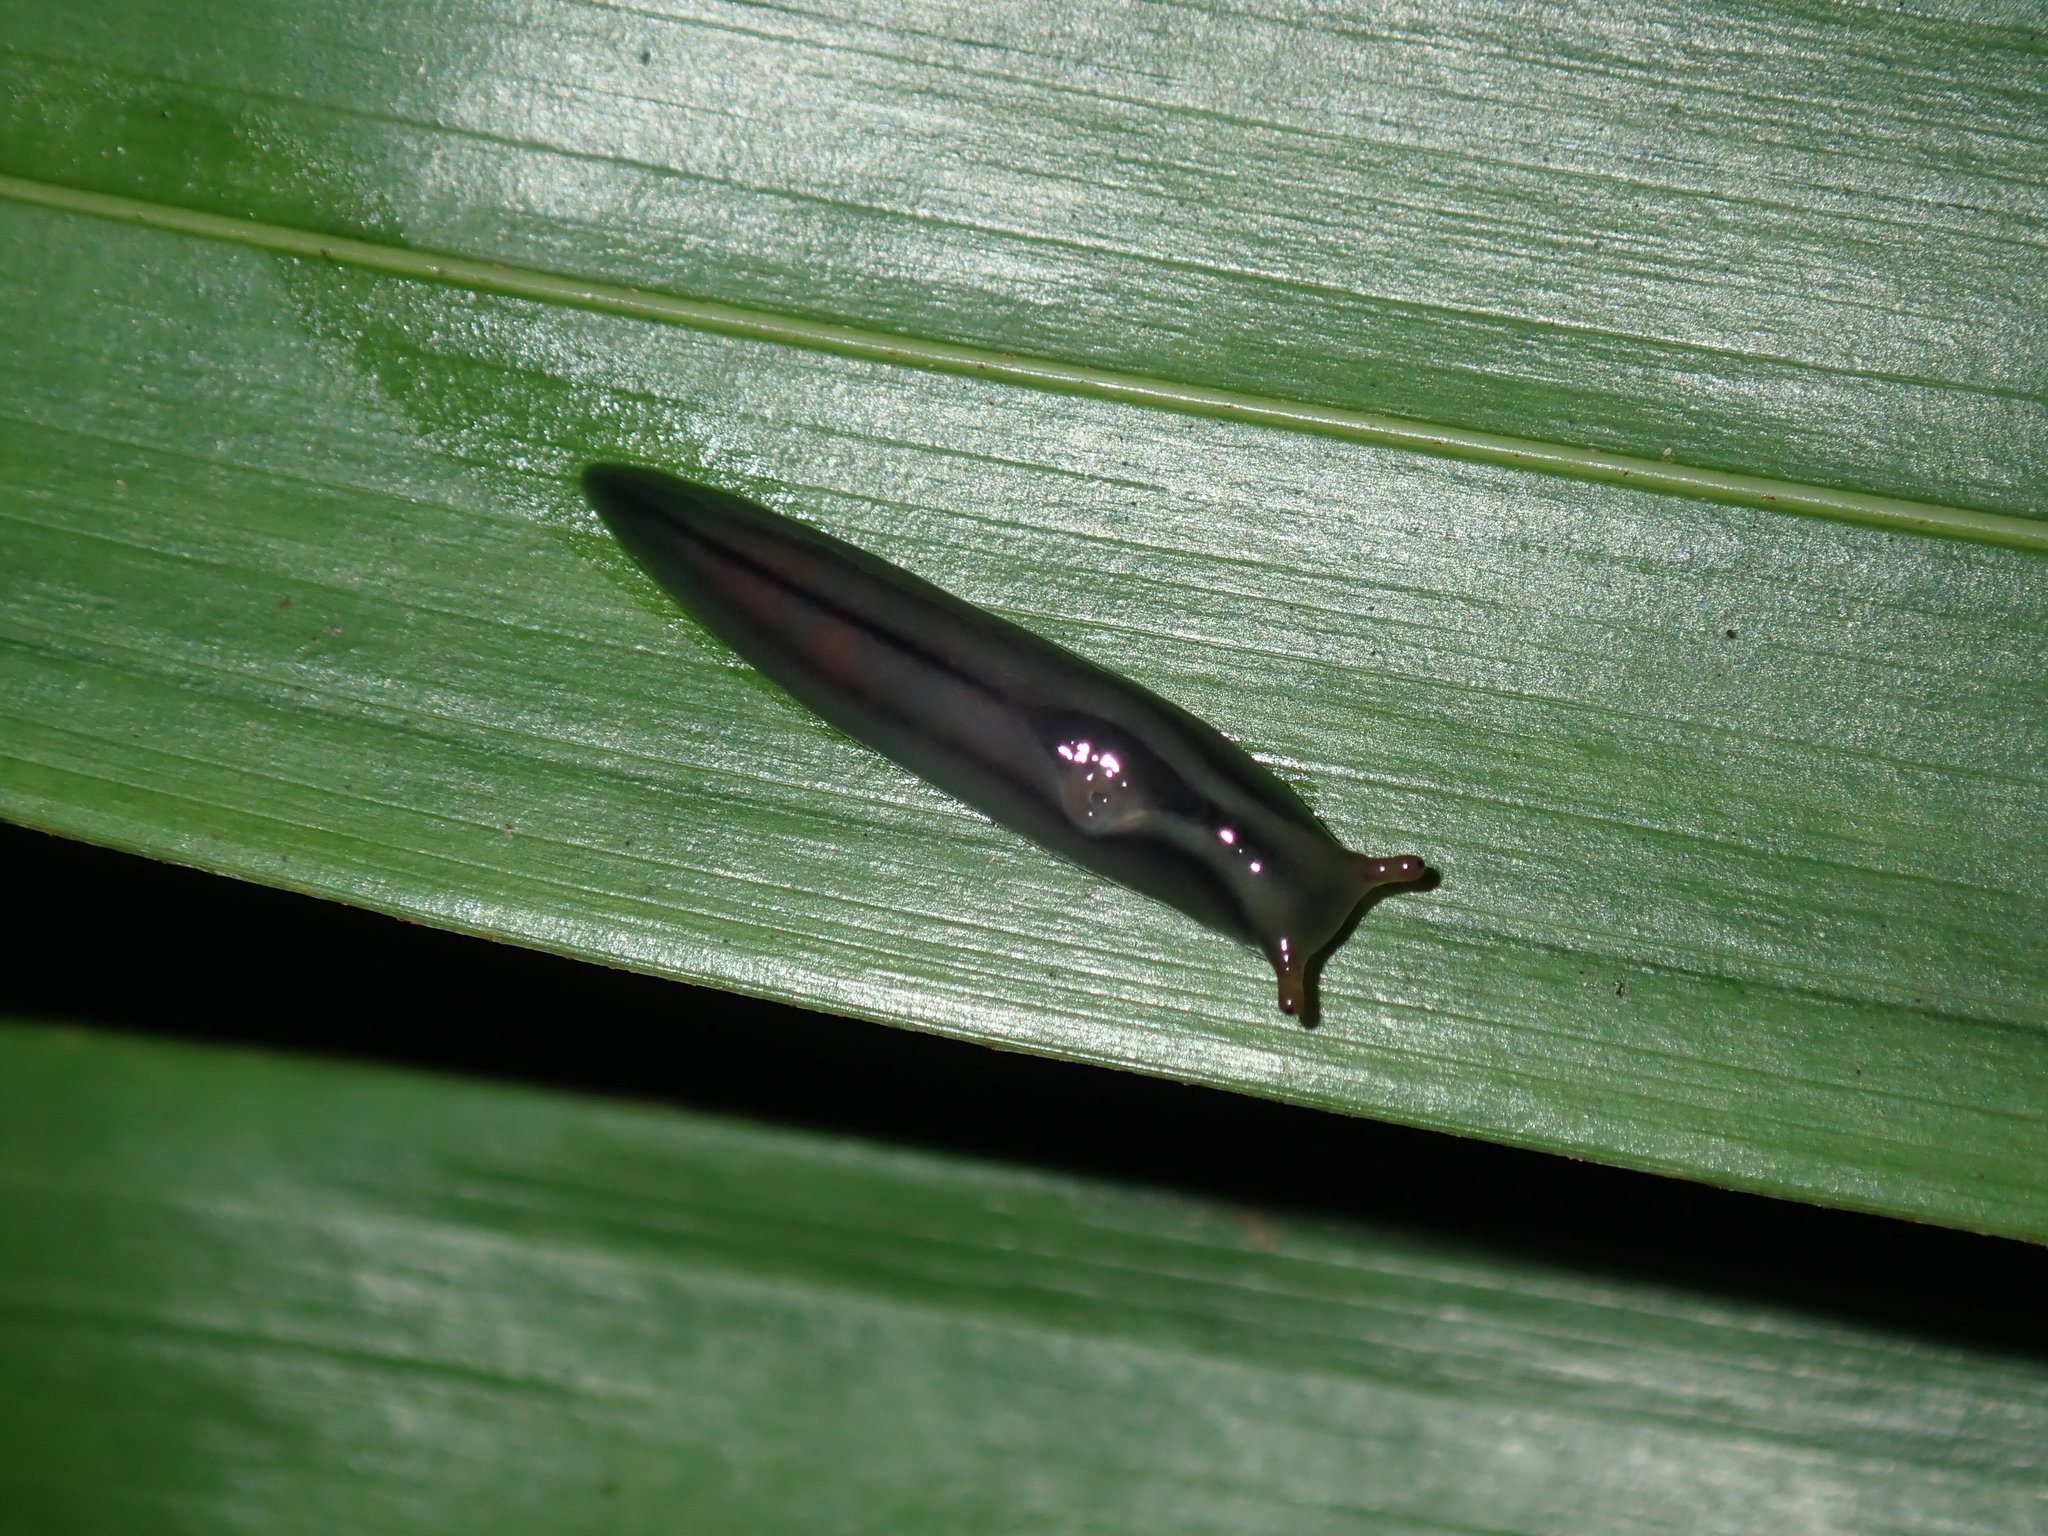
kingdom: Animalia
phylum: Mollusca
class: Gastropoda
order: Stylommatophora
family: Athoracophoridae
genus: Triboniophorus
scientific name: Triboniophorus graeffei
